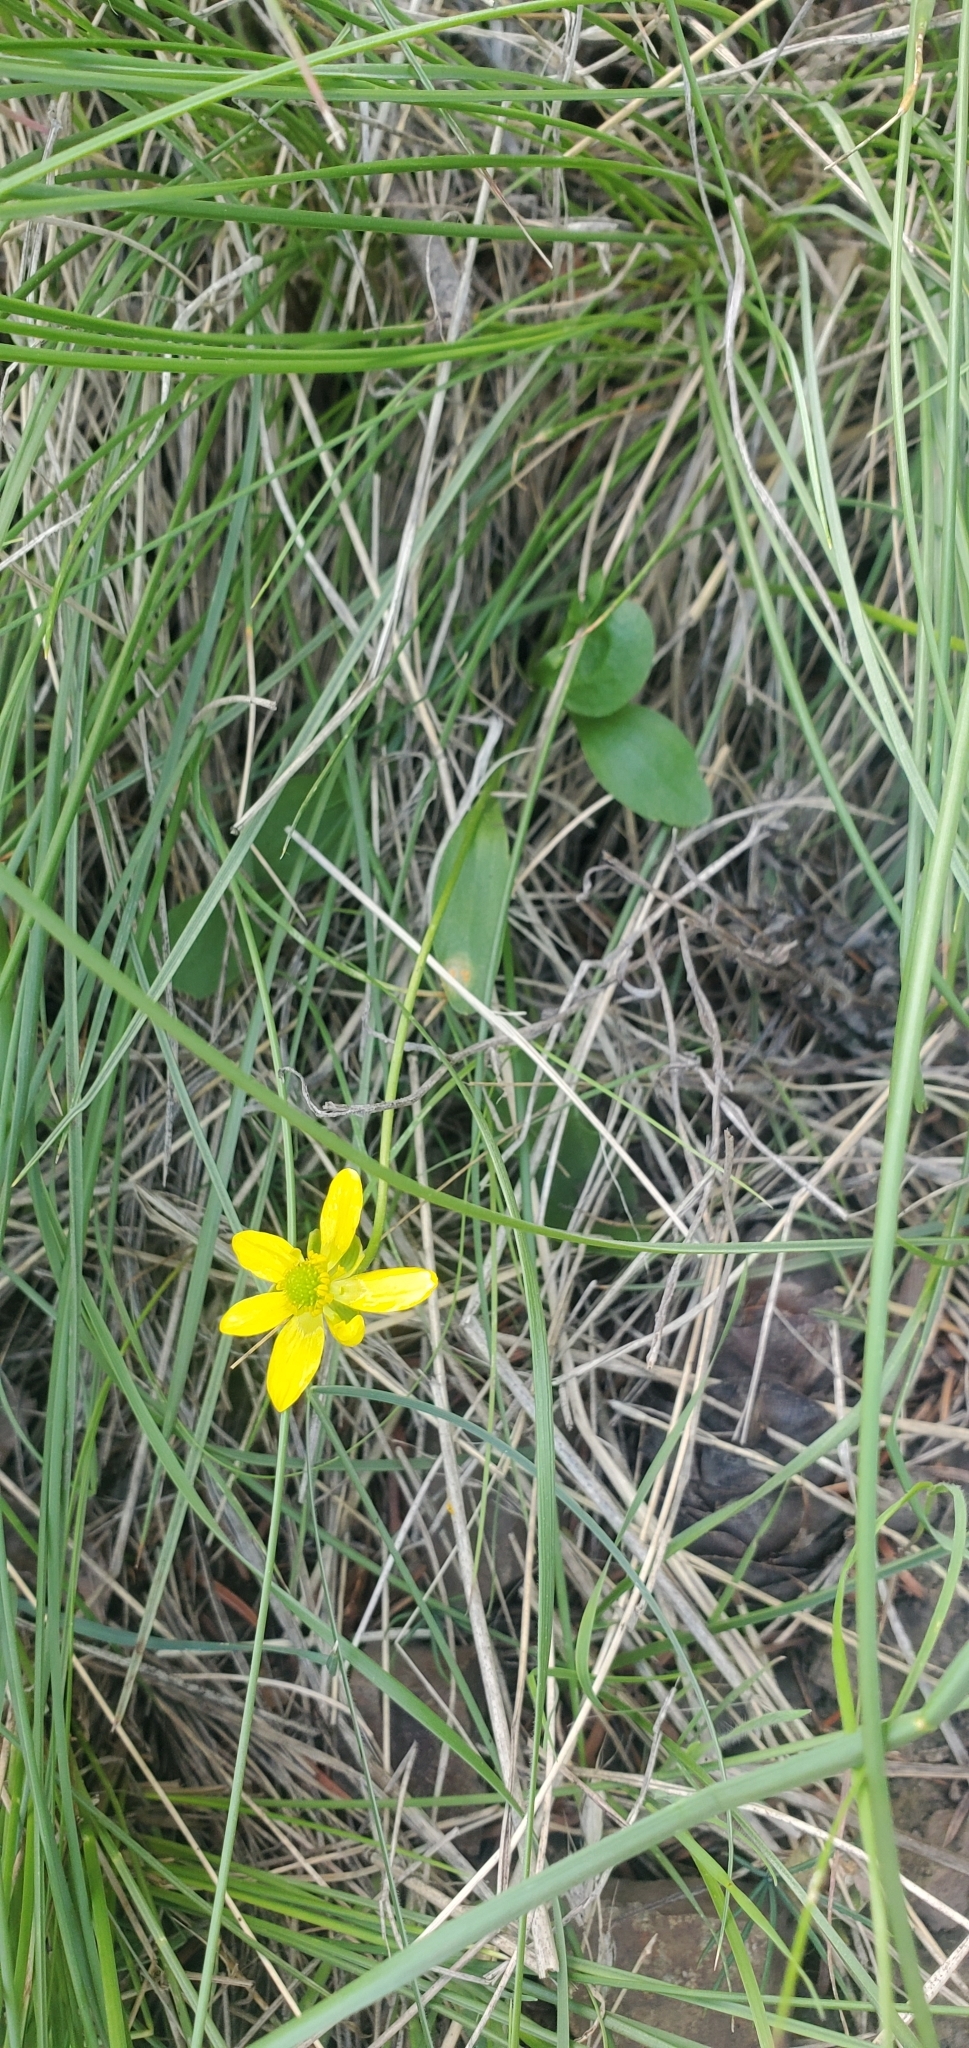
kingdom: Plantae
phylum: Tracheophyta
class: Magnoliopsida
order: Ranunculales
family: Ranunculaceae
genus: Ranunculus
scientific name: Ranunculus glaberrimus
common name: Sagebrush buttercup
